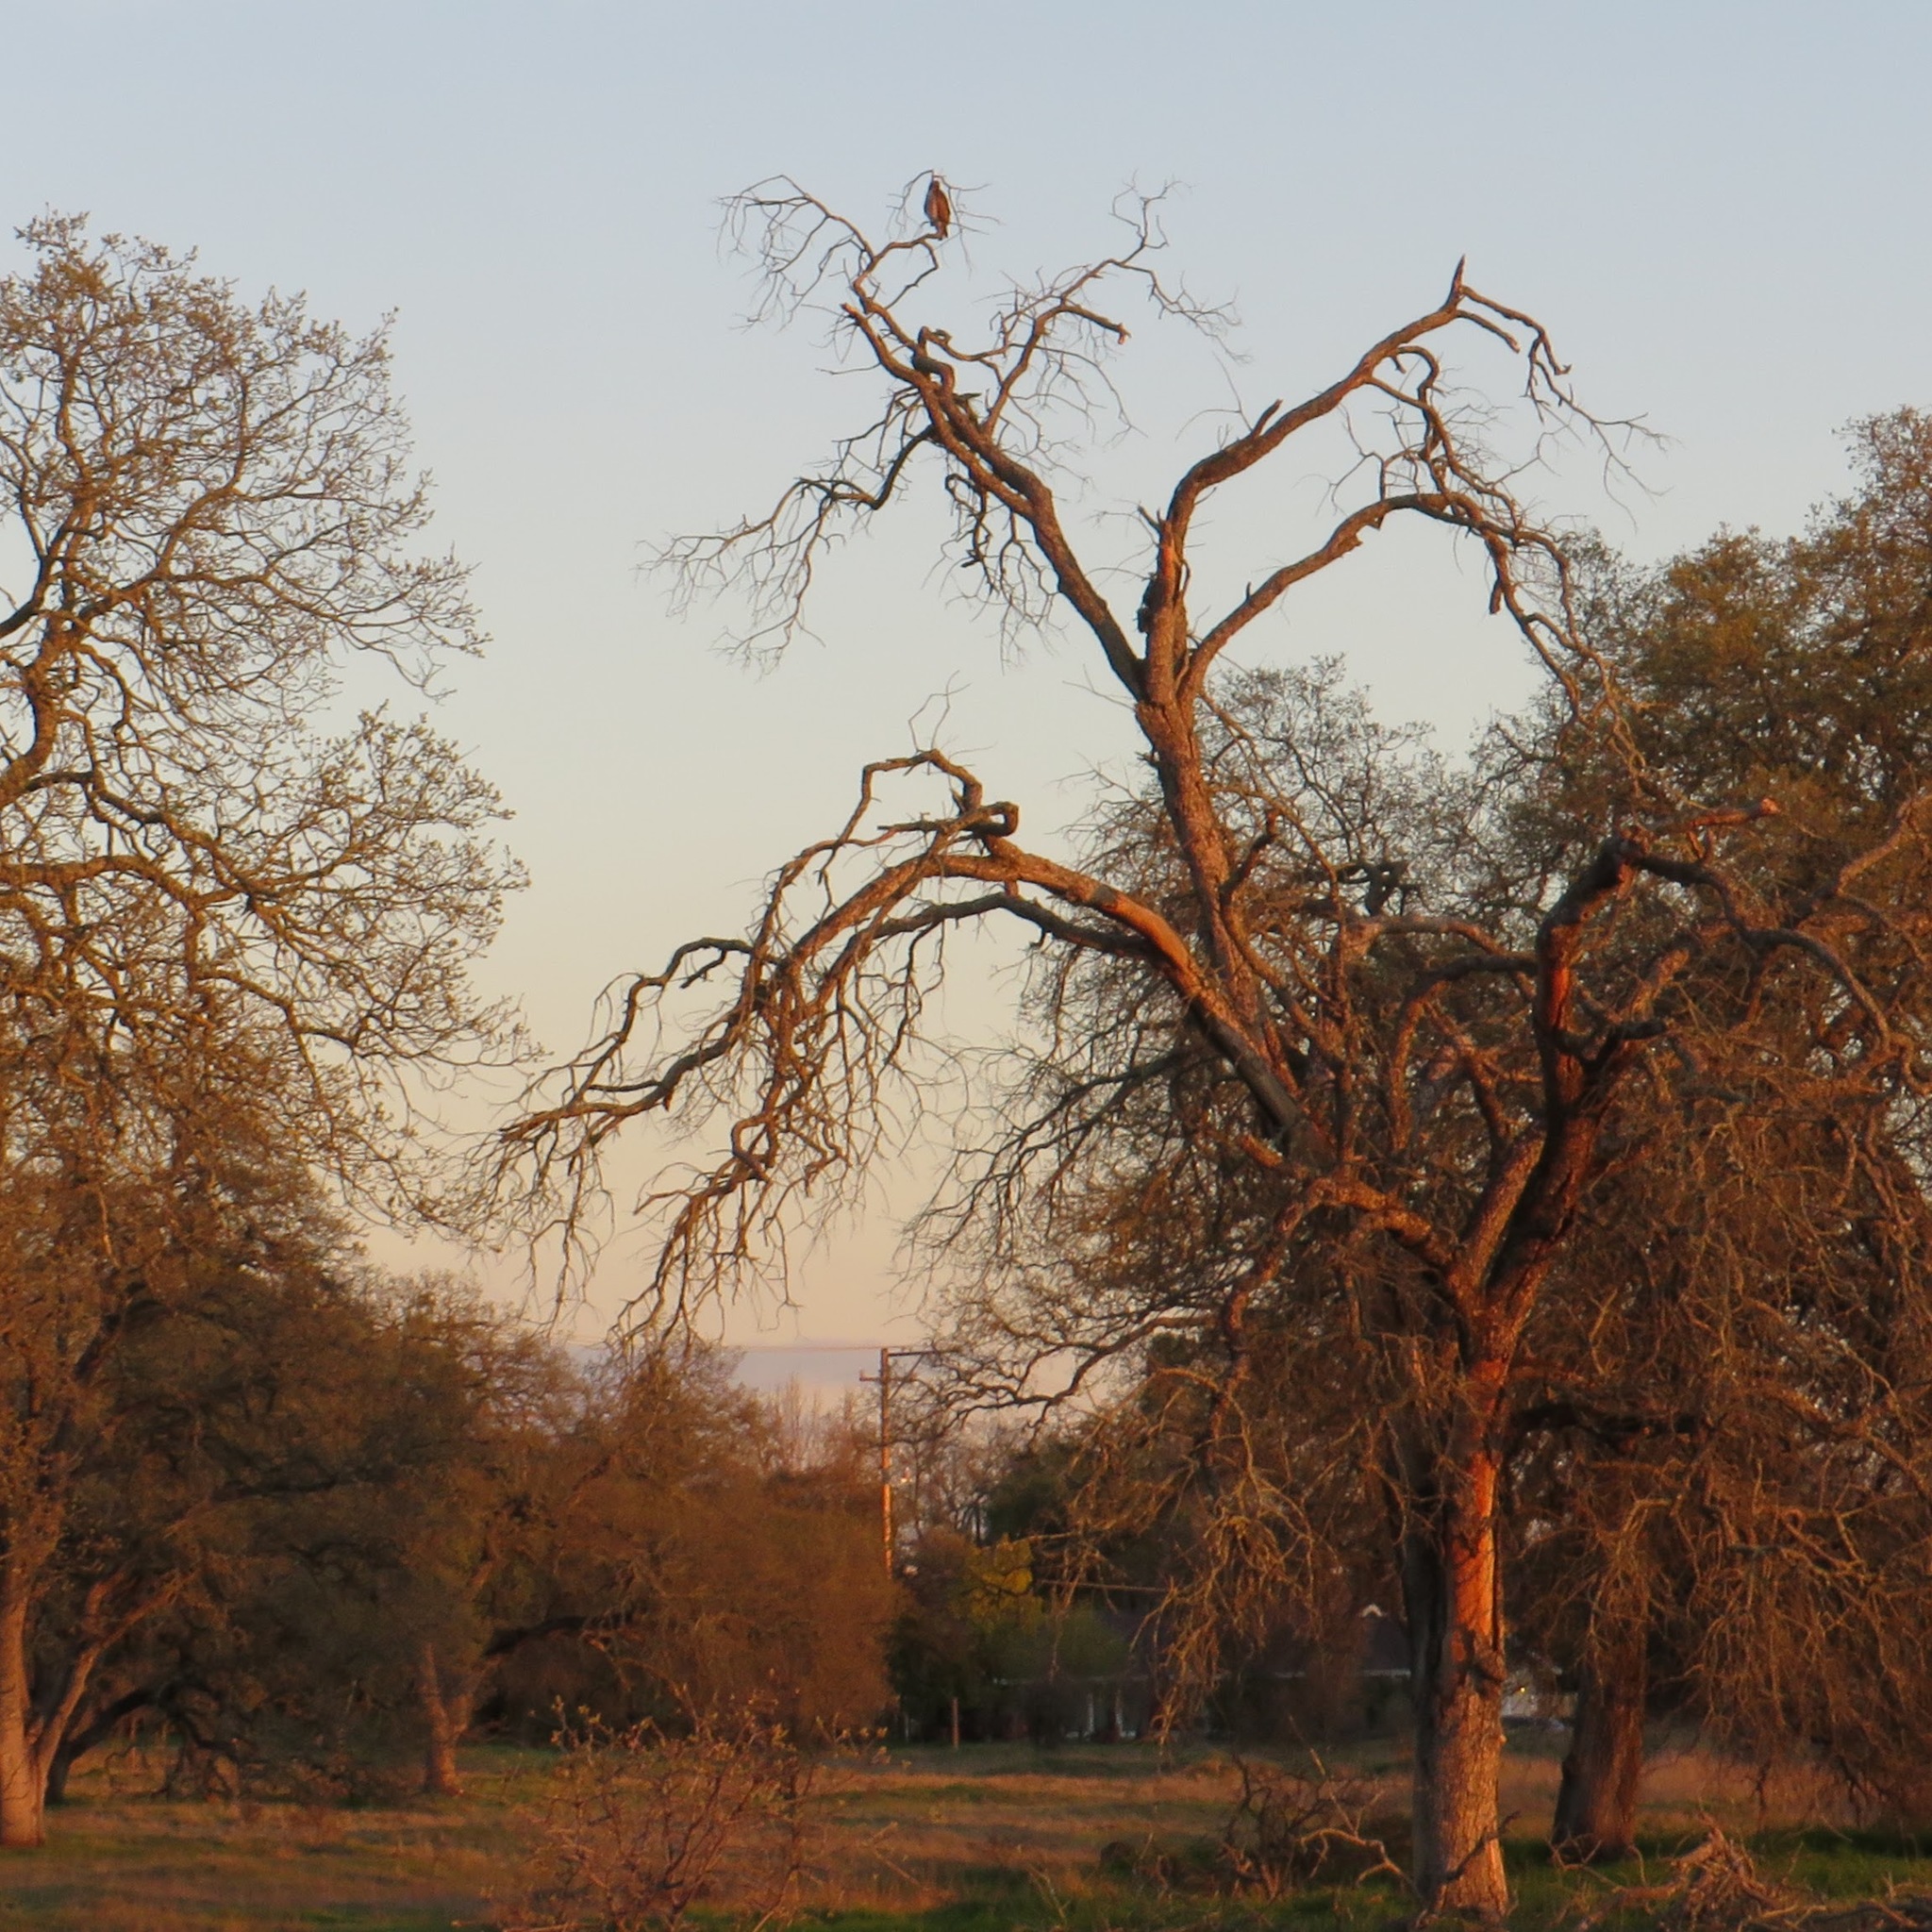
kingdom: Animalia
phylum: Chordata
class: Aves
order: Accipitriformes
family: Accipitridae
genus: Buteo
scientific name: Buteo jamaicensis
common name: Red-tailed hawk
